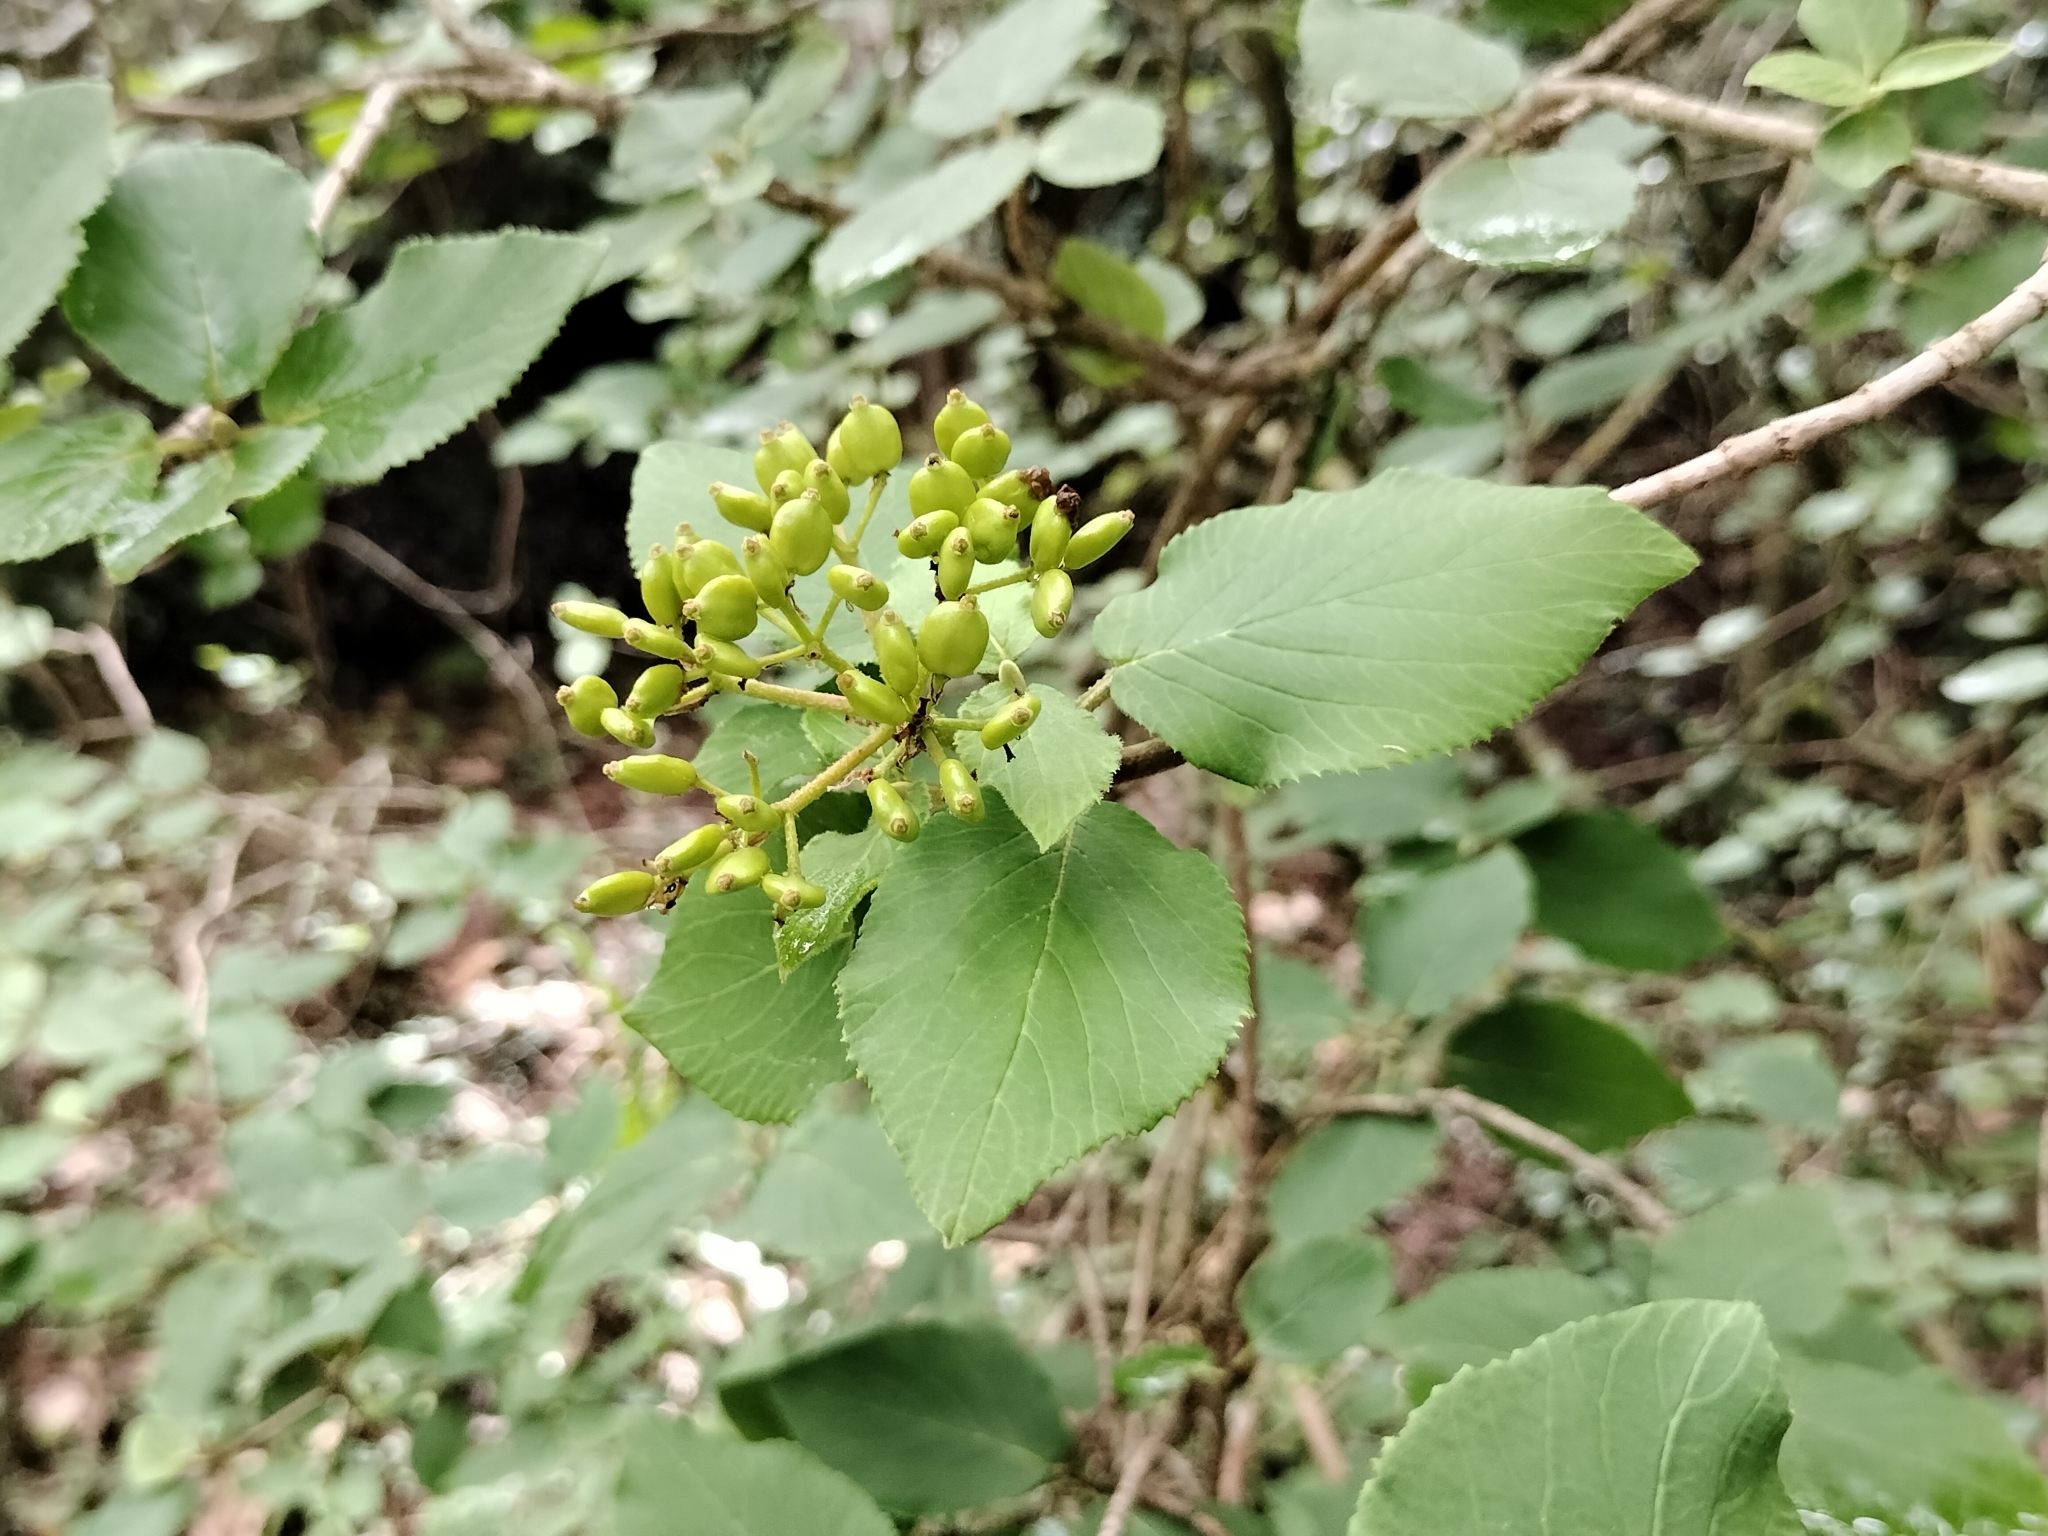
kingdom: Plantae
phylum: Tracheophyta
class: Magnoliopsida
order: Dipsacales
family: Viburnaceae
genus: Viburnum
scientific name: Viburnum lantana
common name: Wayfaring tree
